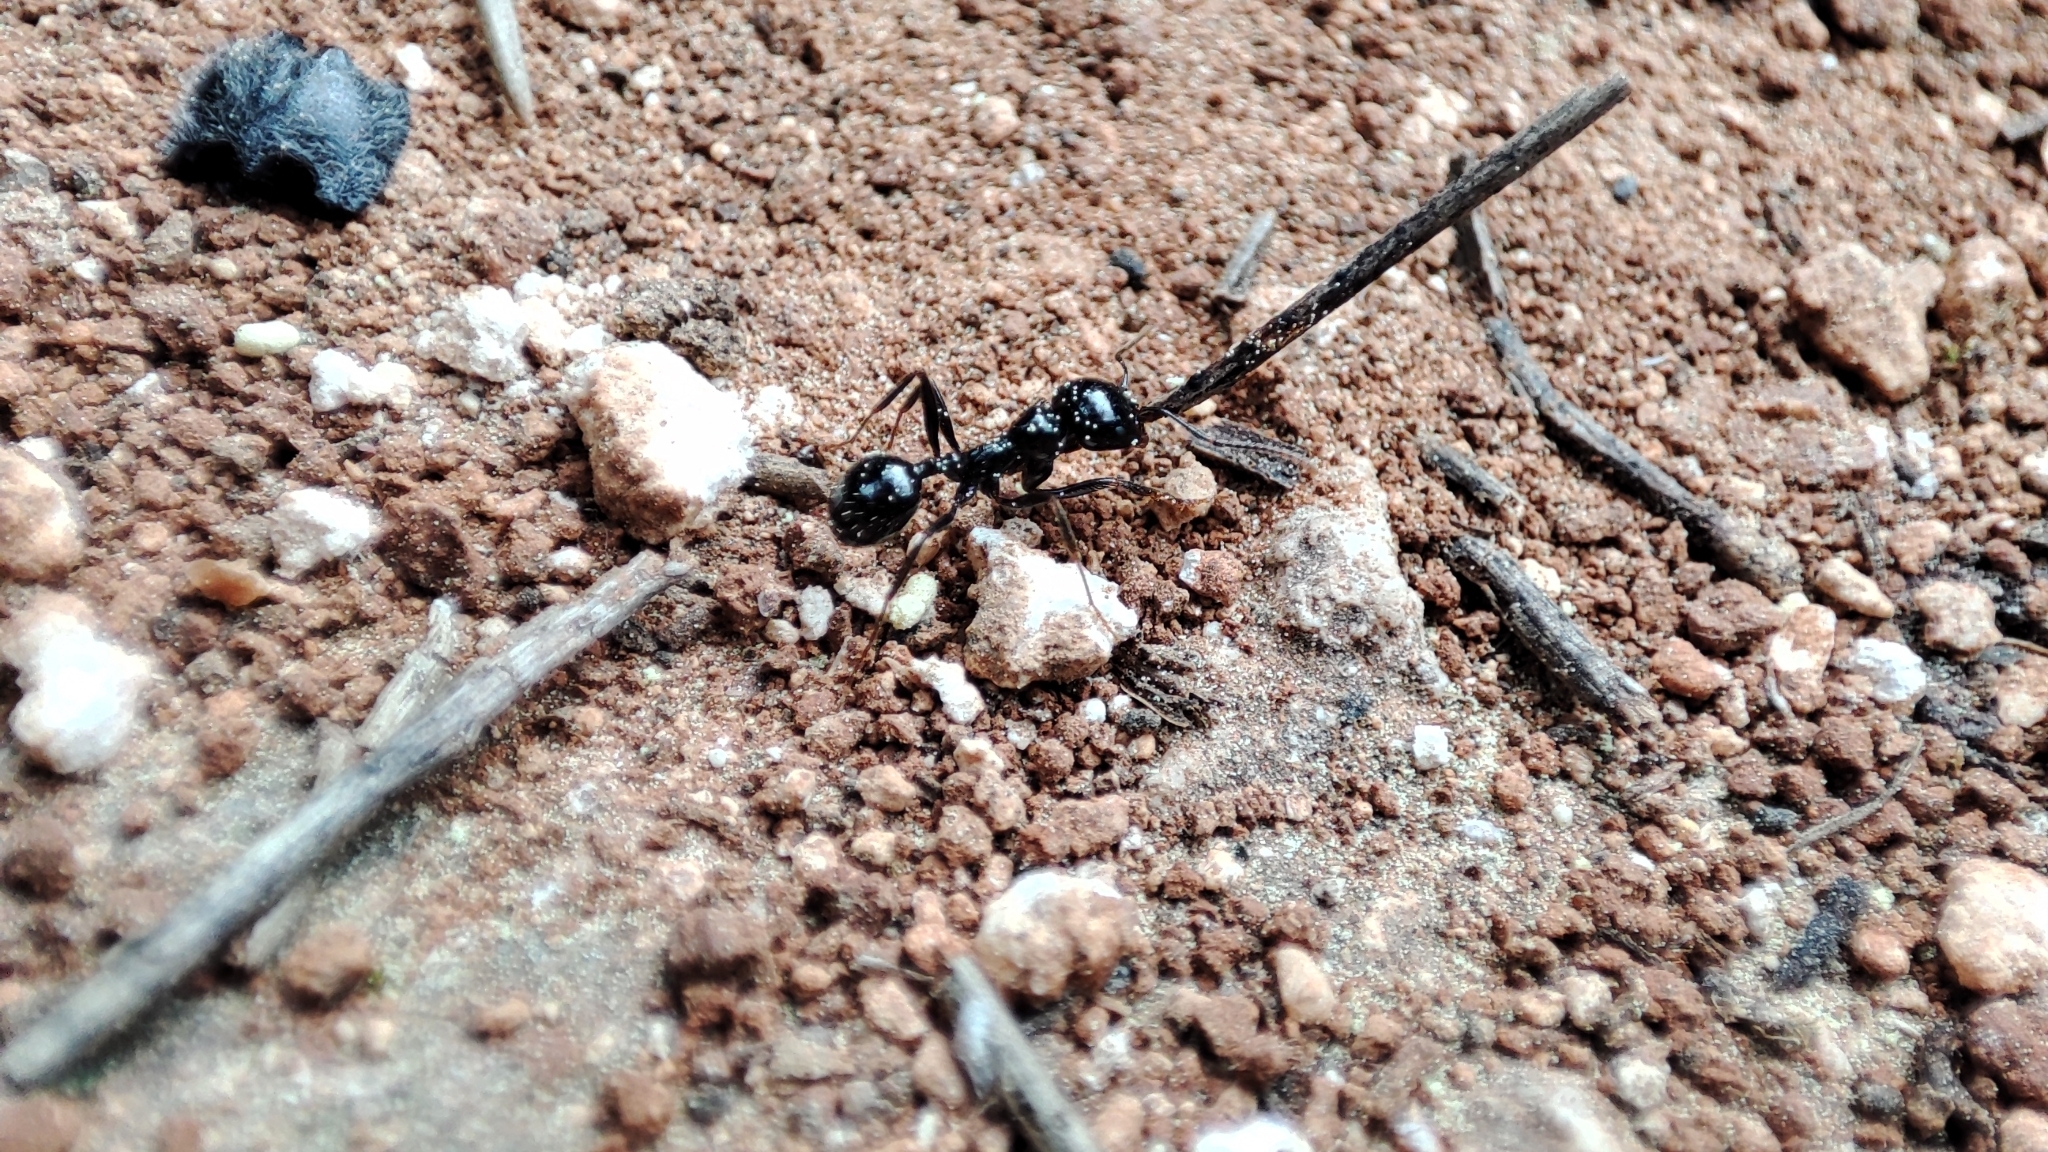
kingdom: Animalia
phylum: Arthropoda
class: Insecta
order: Hymenoptera
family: Formicidae
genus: Messor
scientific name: Messor capitatus
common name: European seed harvesting ant
